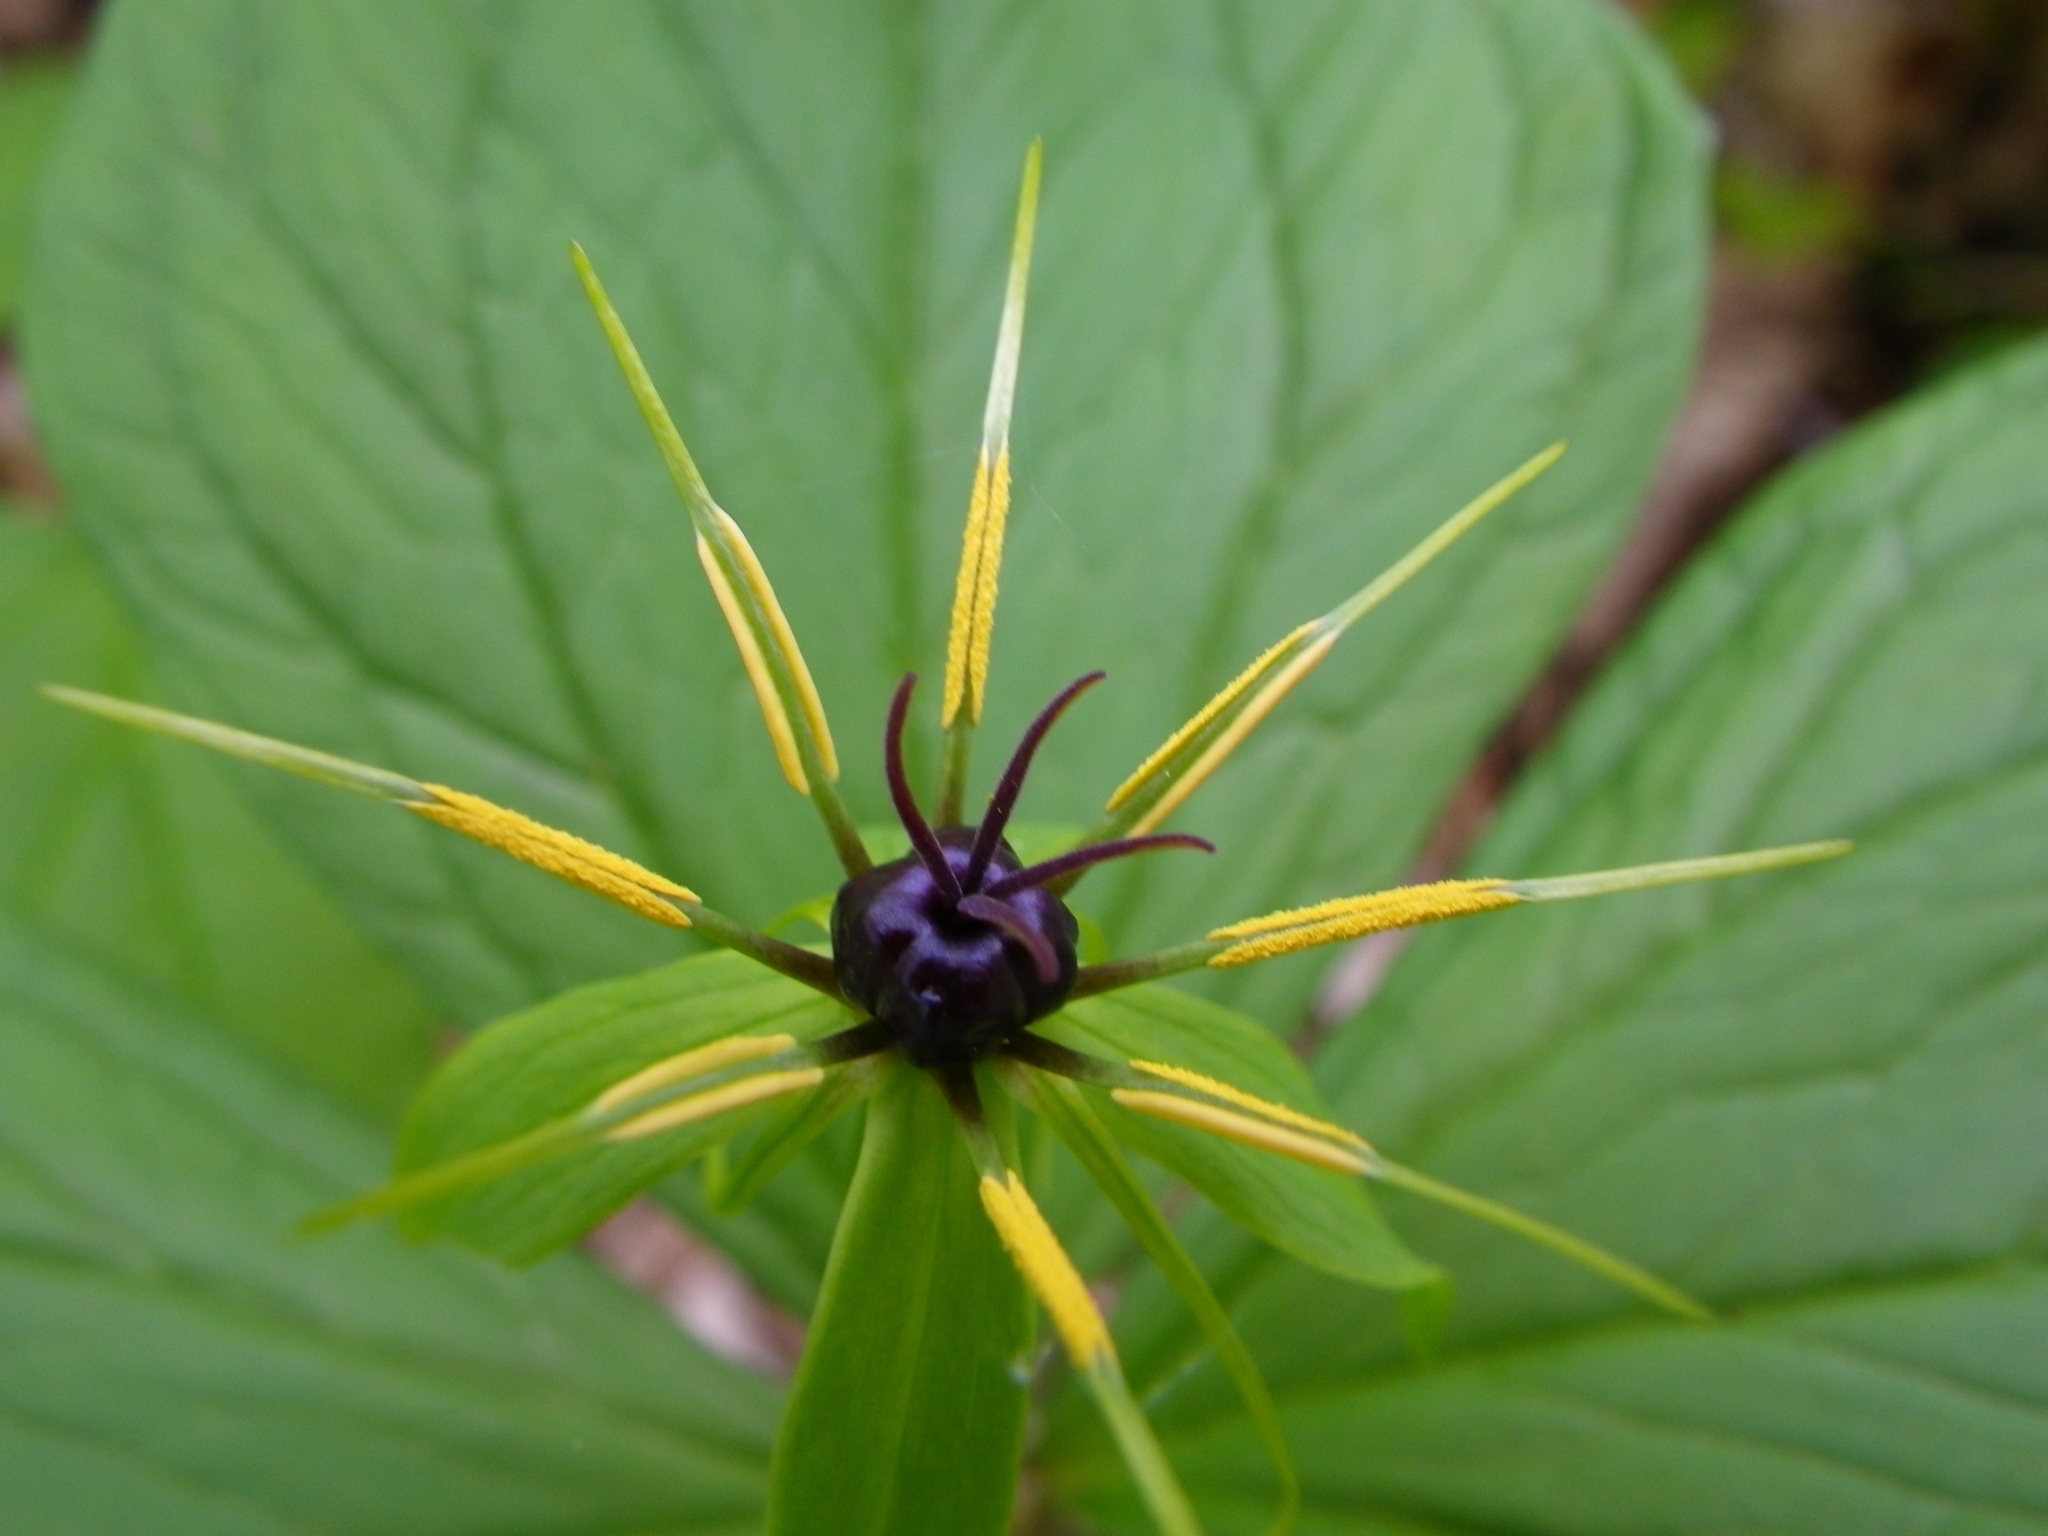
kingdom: Plantae
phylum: Tracheophyta
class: Liliopsida
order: Liliales
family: Melanthiaceae
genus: Paris
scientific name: Paris quadrifolia
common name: Herb-paris
